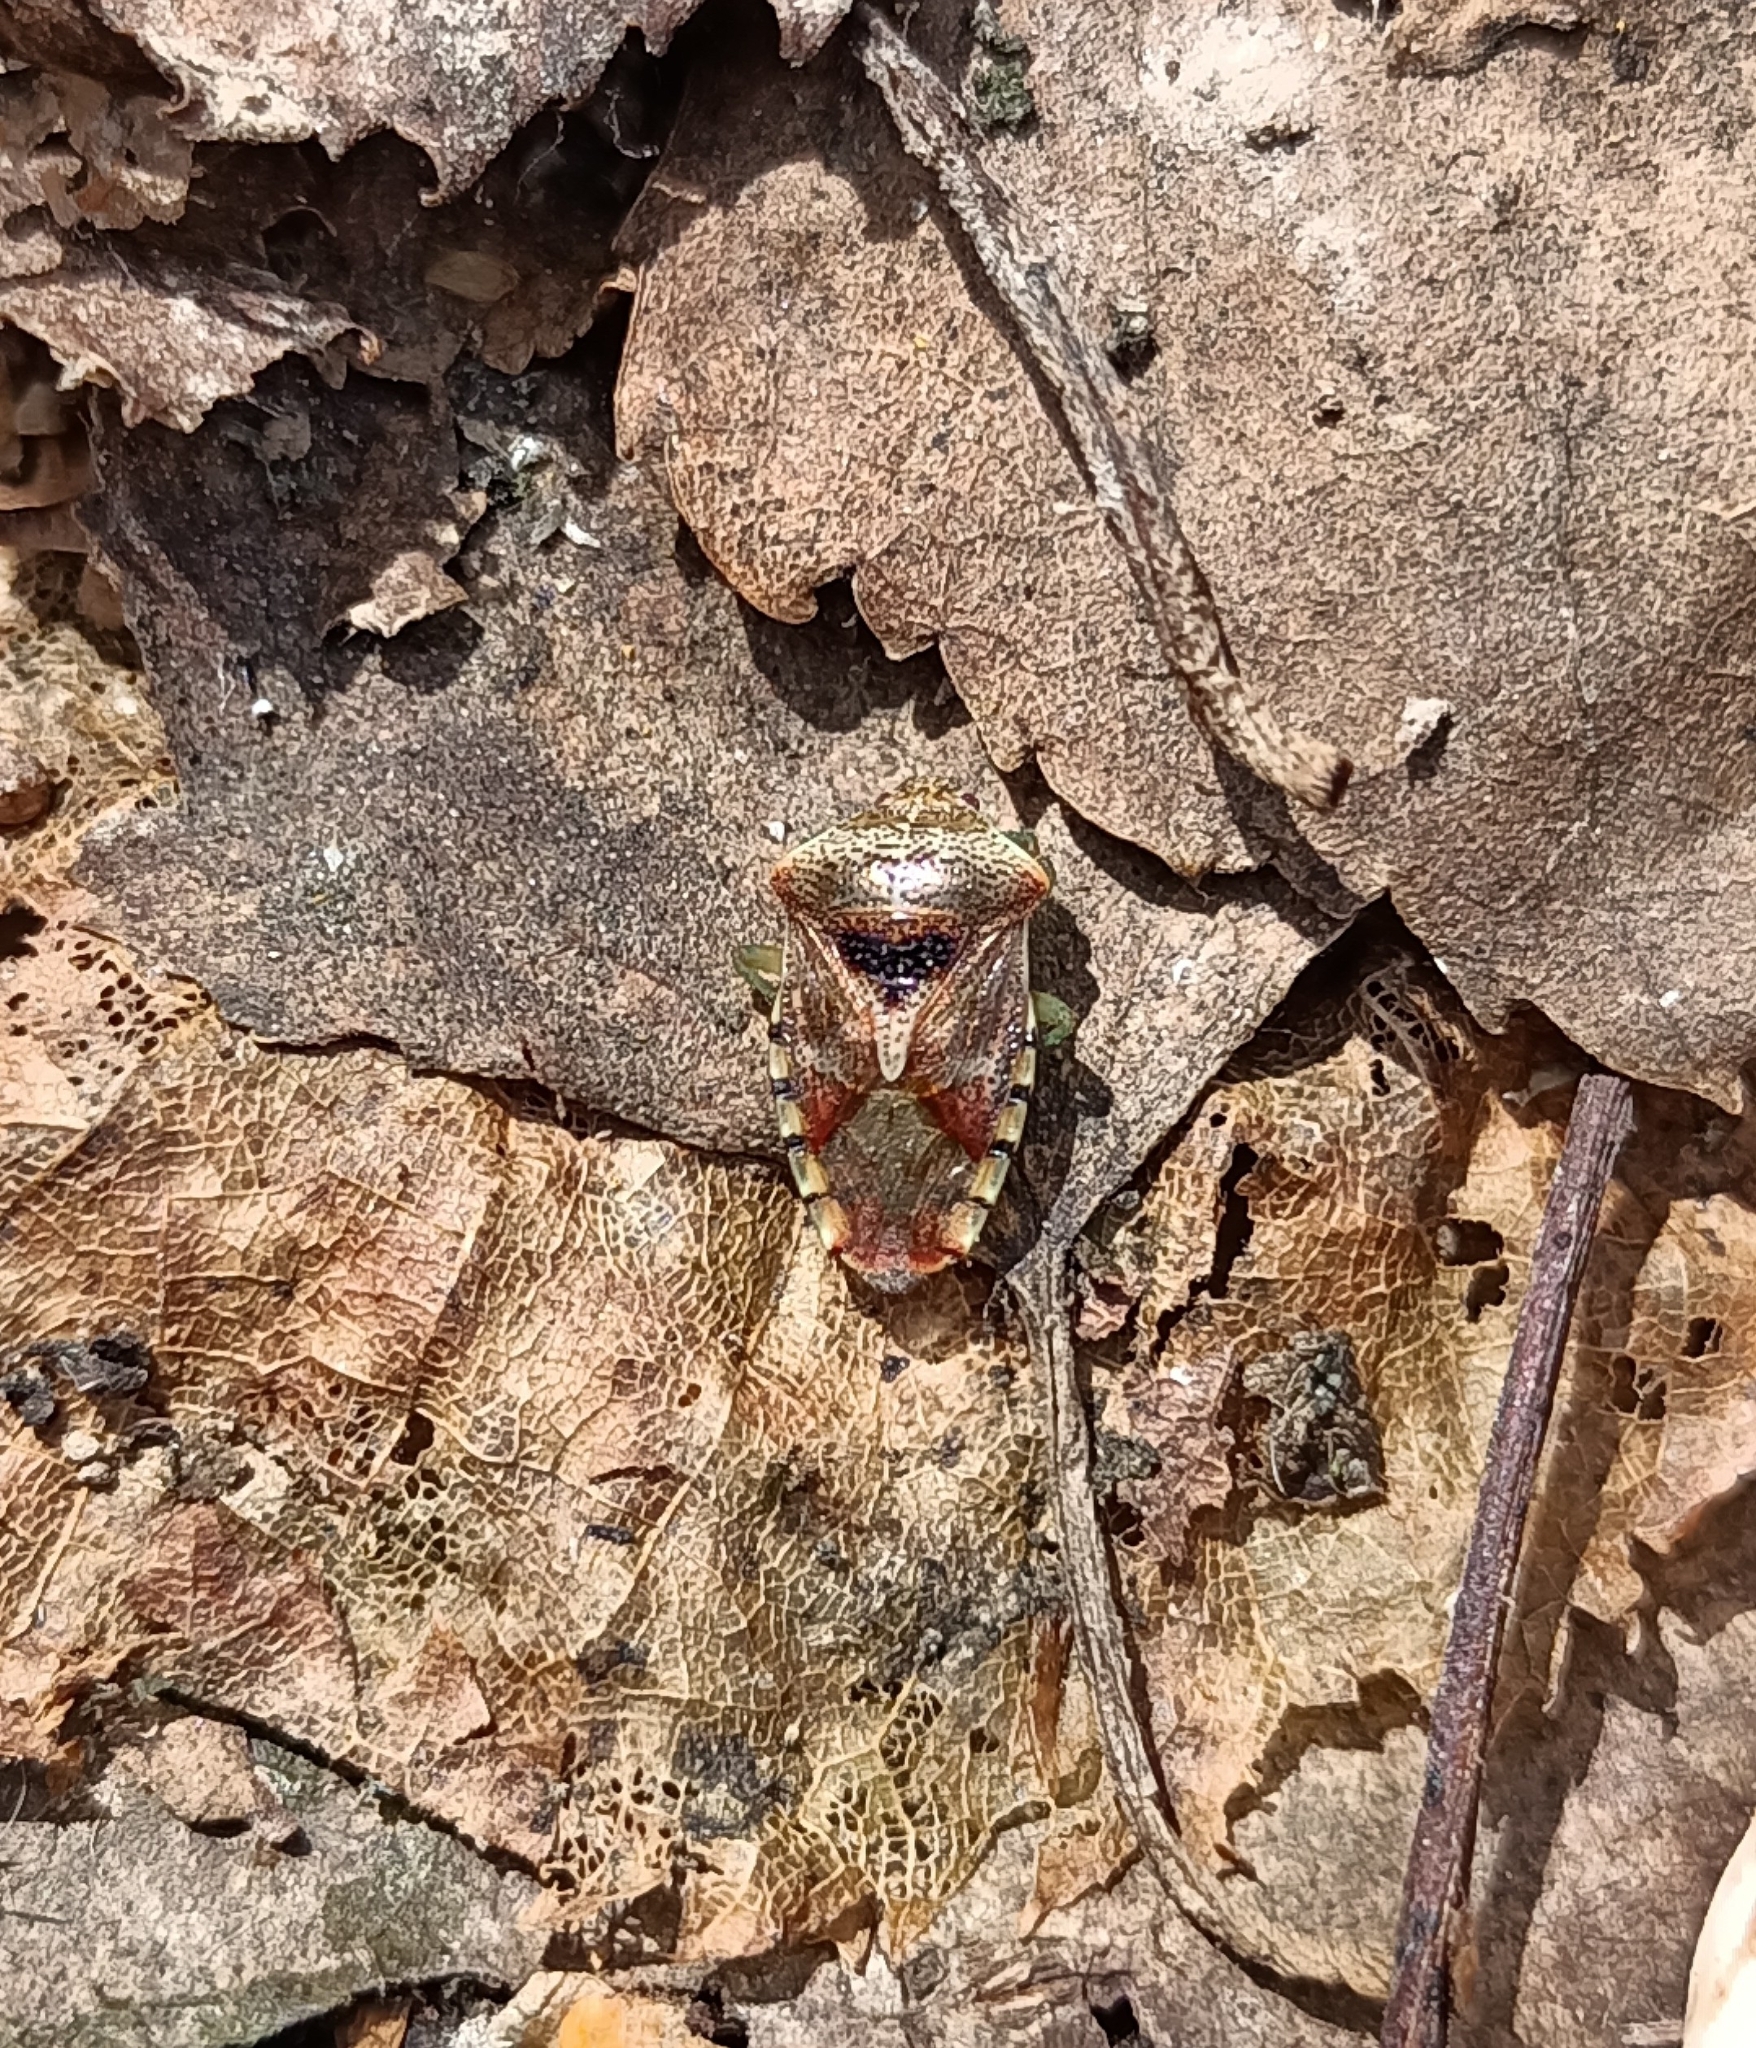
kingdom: Animalia
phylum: Arthropoda
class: Insecta
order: Hemiptera
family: Acanthosomatidae
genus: Elasmucha
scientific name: Elasmucha grisea
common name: Parent bug
